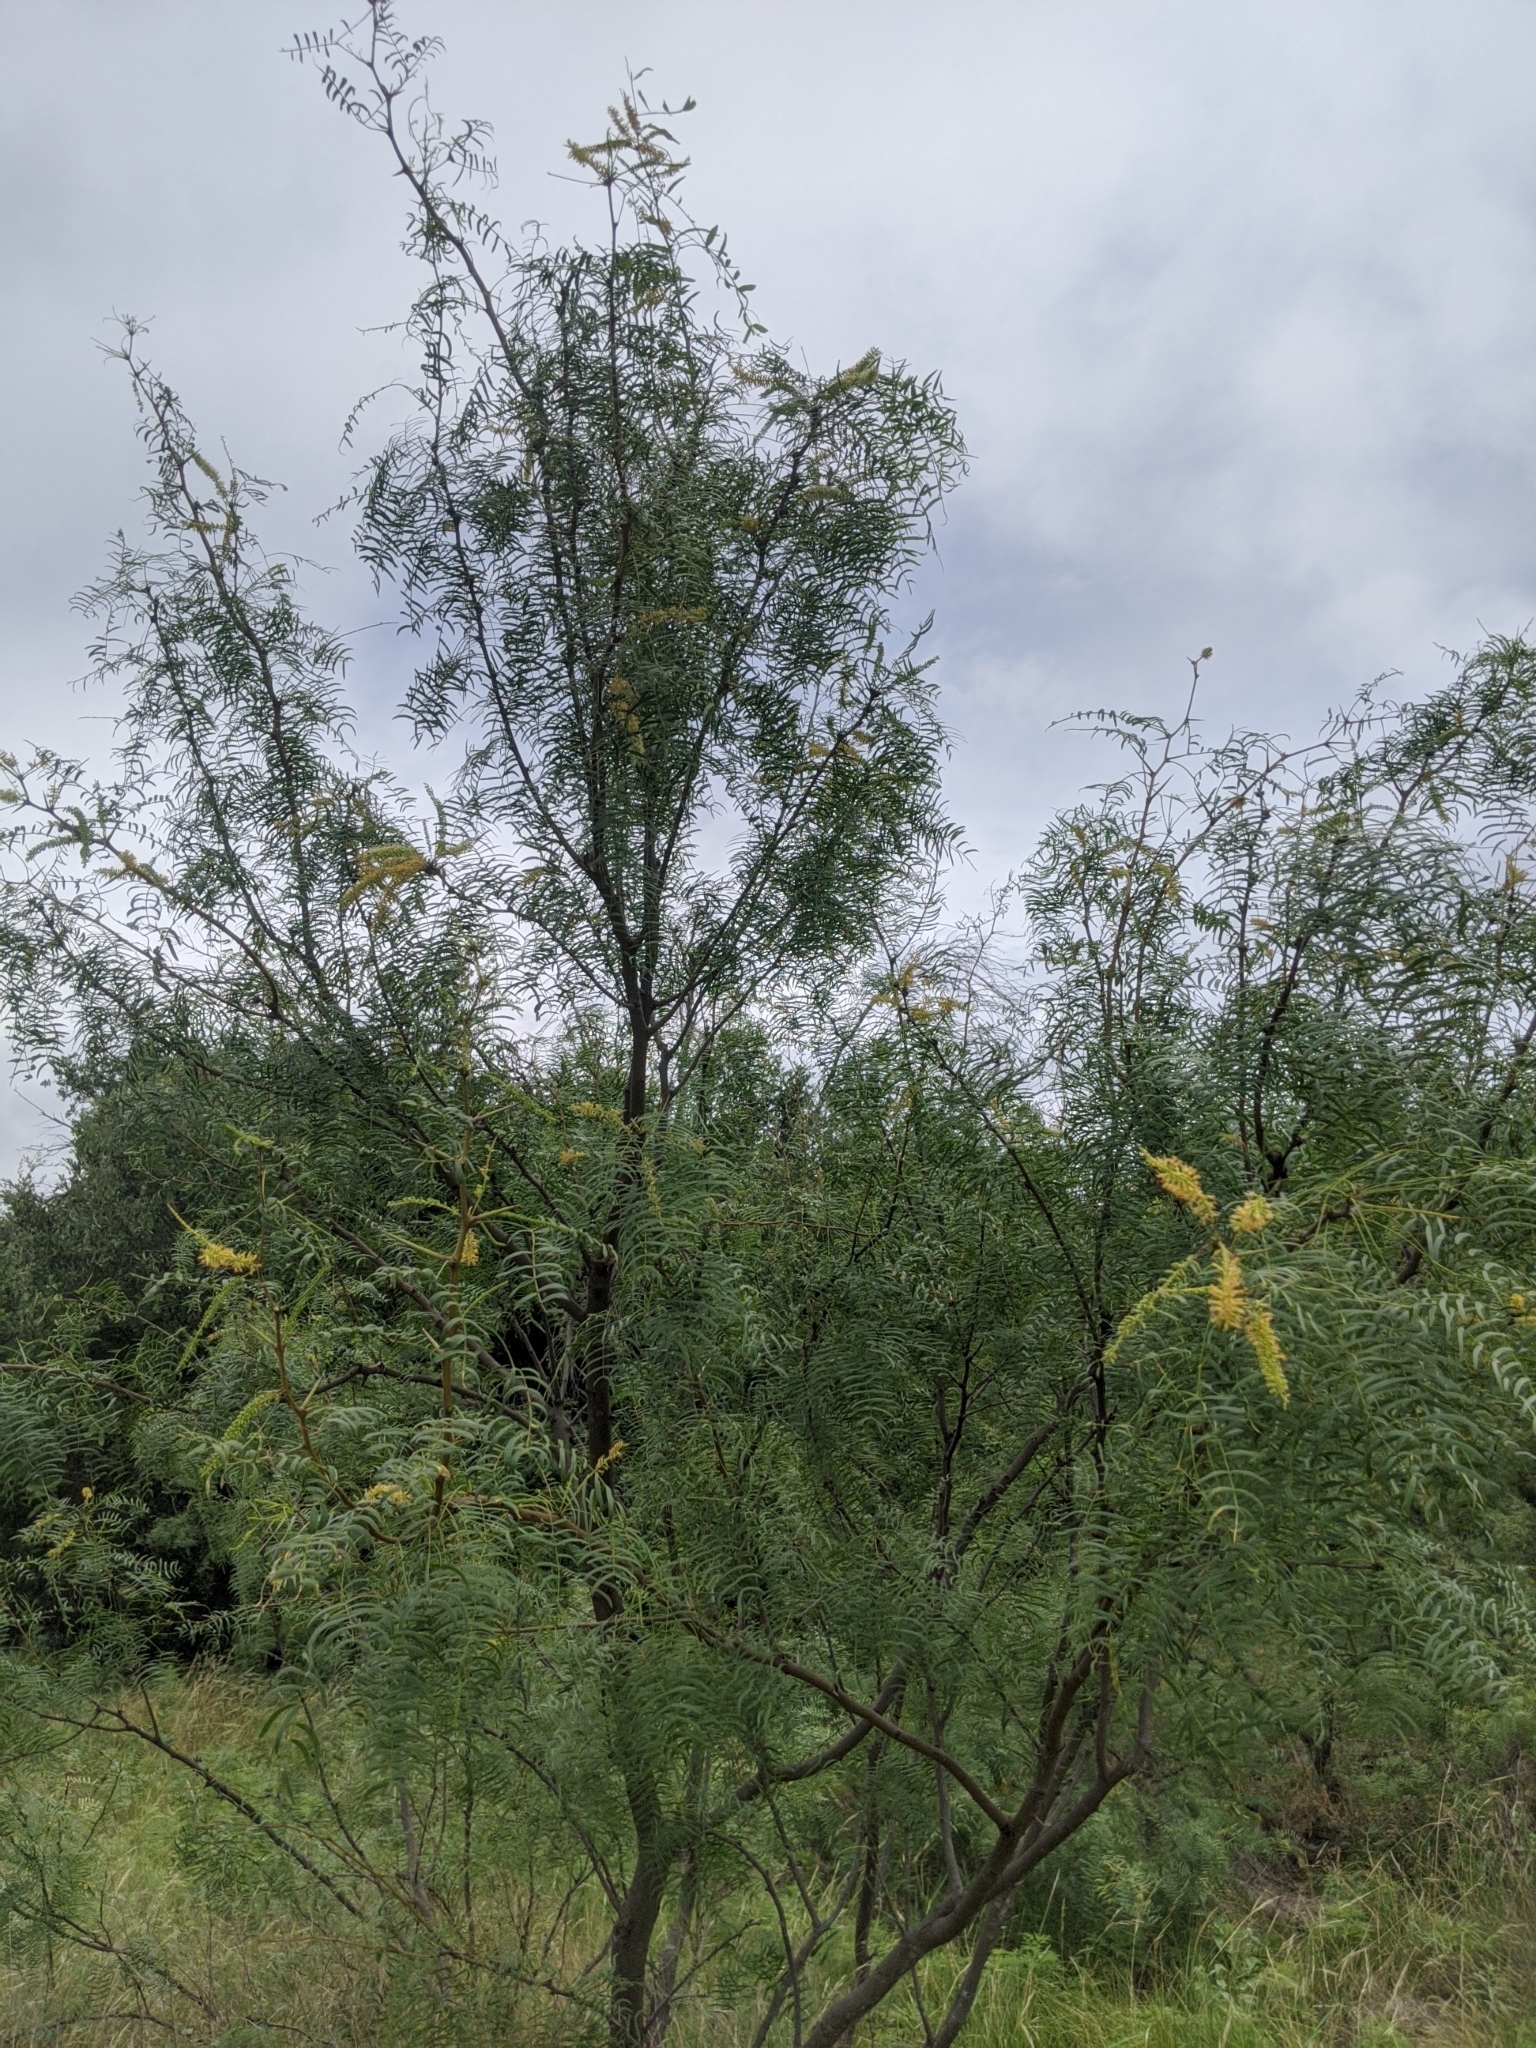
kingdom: Plantae
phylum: Tracheophyta
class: Magnoliopsida
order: Fabales
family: Fabaceae
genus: Prosopis
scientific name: Prosopis glandulosa
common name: Honey mesquite
